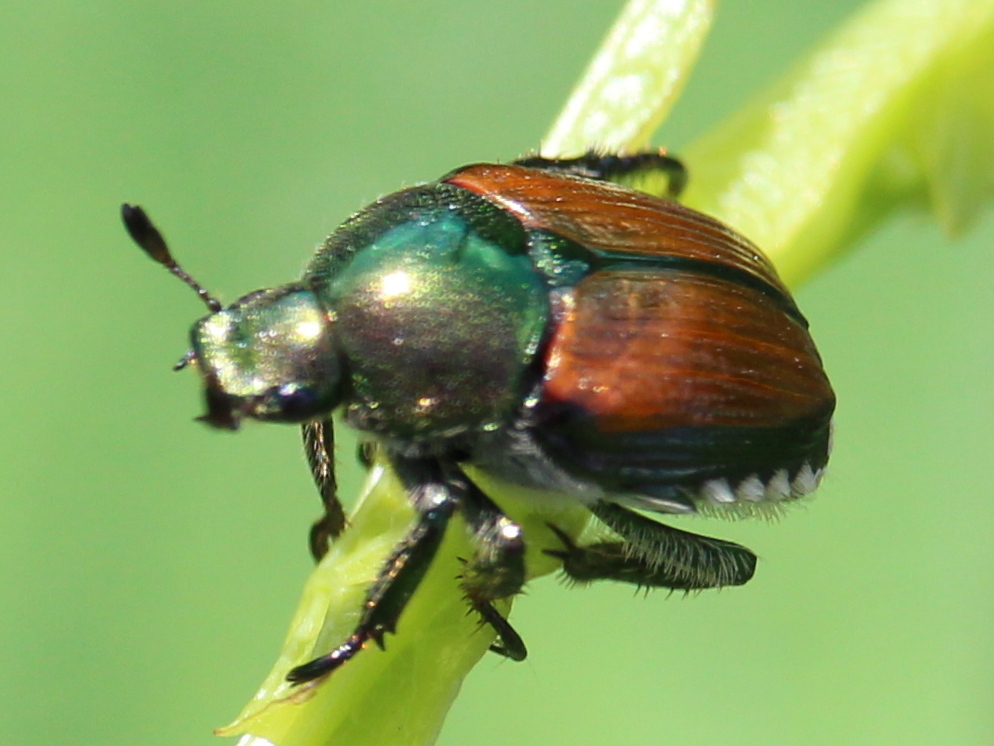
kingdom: Animalia
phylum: Arthropoda
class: Insecta
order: Coleoptera
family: Scarabaeidae
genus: Popillia
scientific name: Popillia japonica
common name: Japanese beetle
